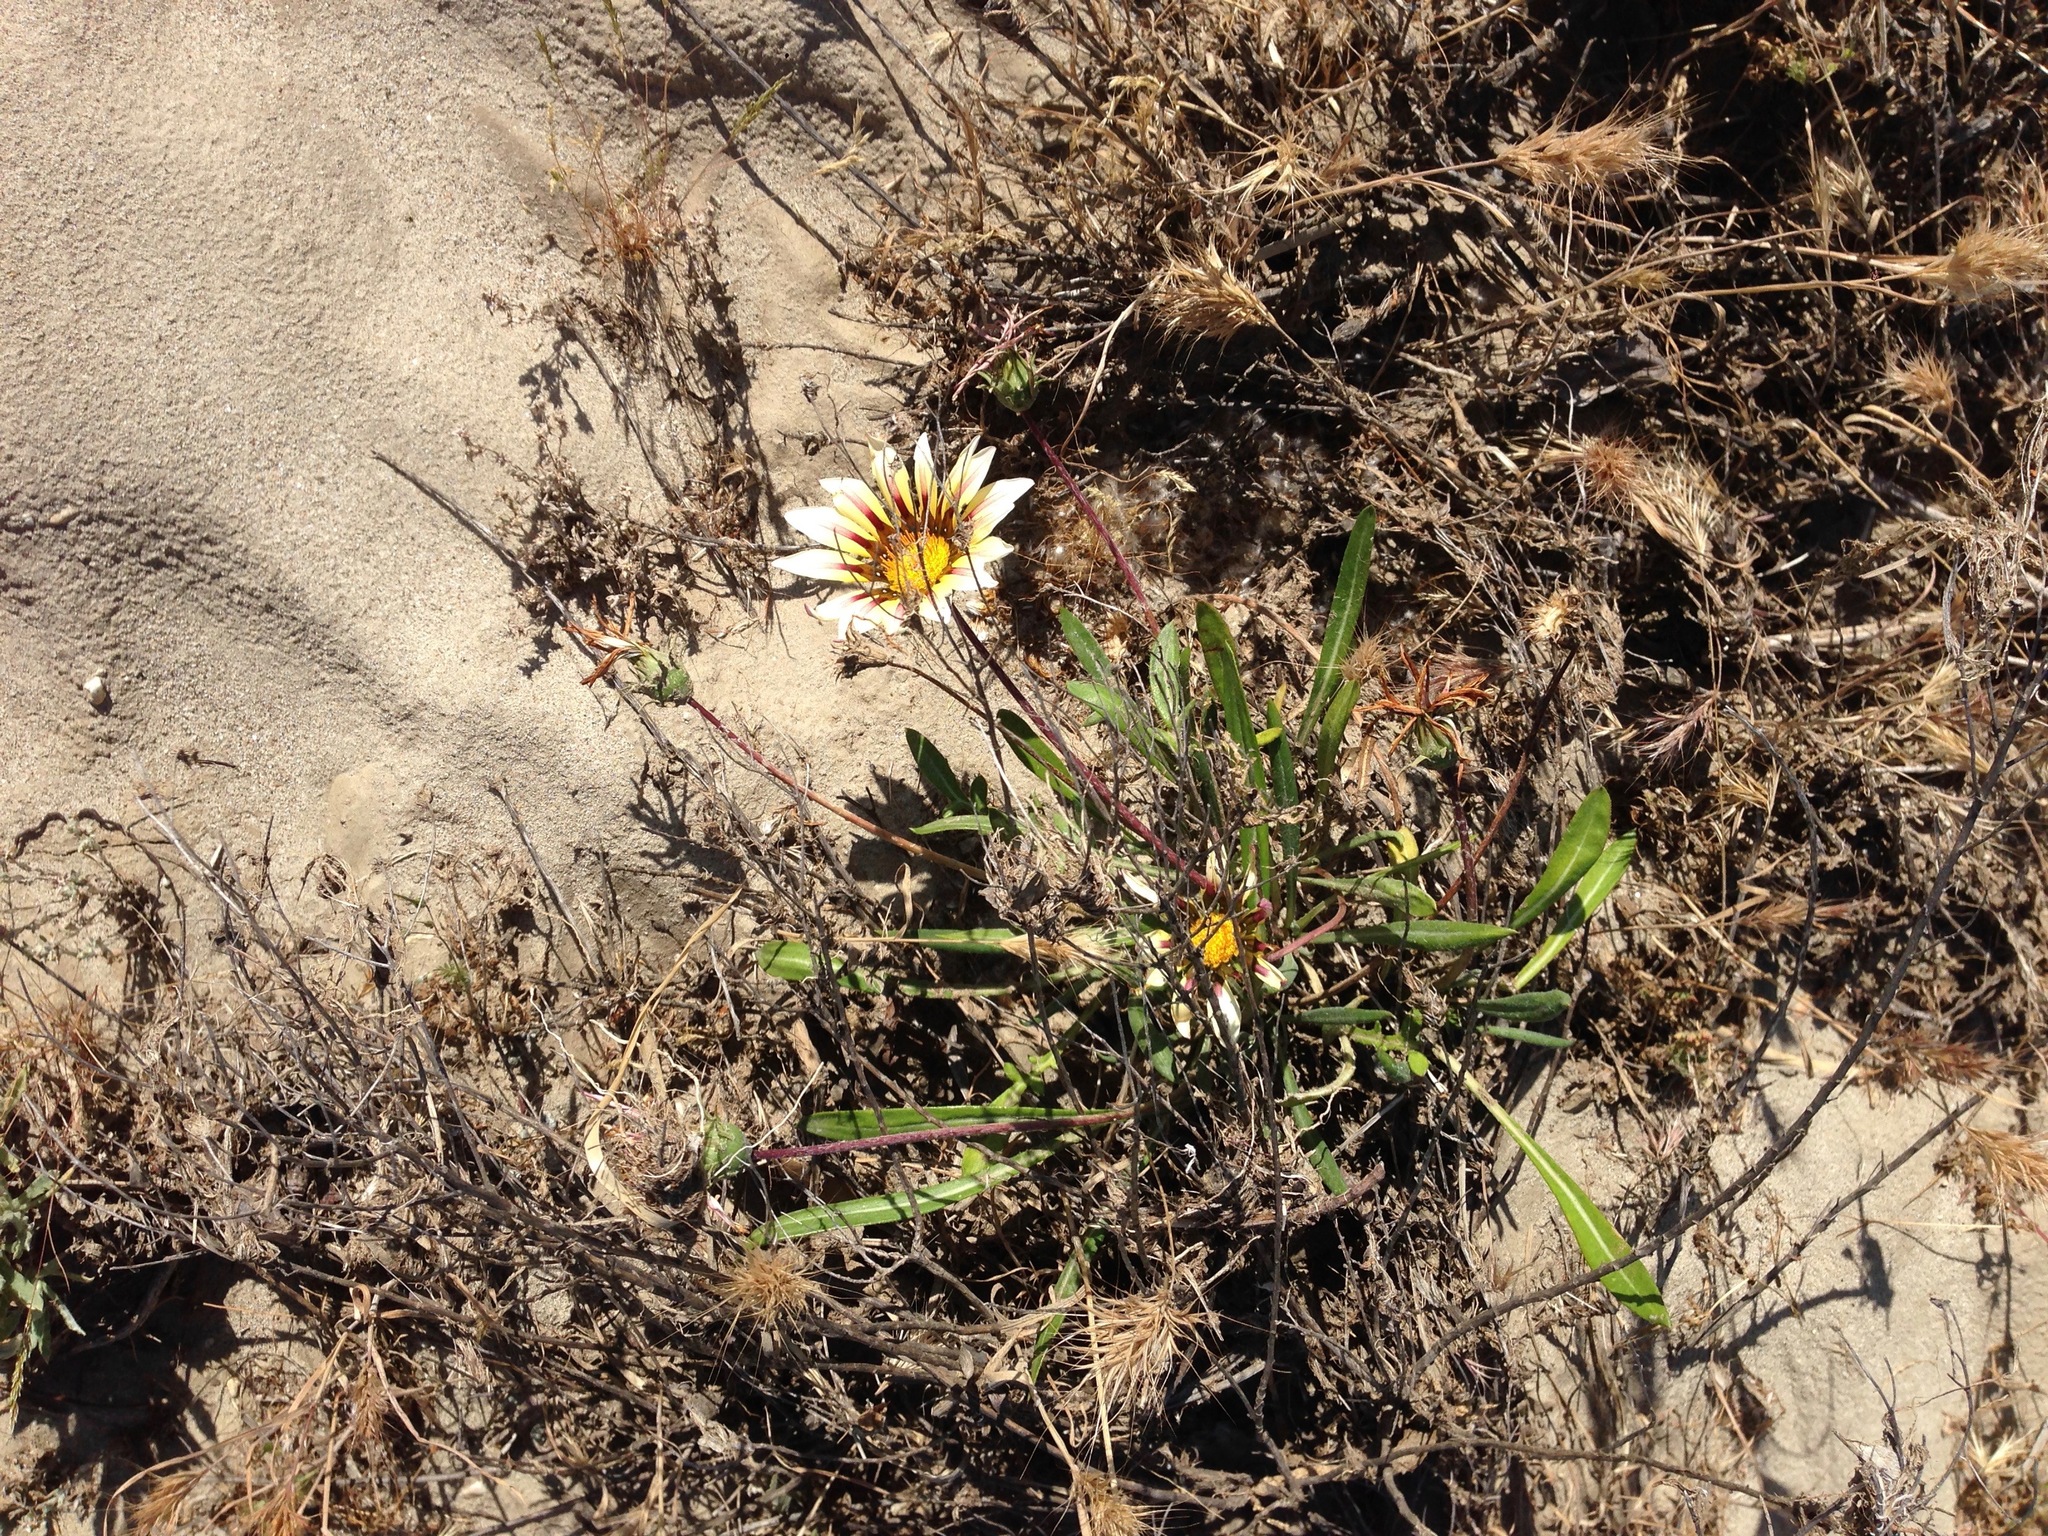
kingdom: Plantae
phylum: Tracheophyta
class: Magnoliopsida
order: Asterales
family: Asteraceae
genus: Gazania
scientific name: Gazania linearis
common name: Treasureflower
